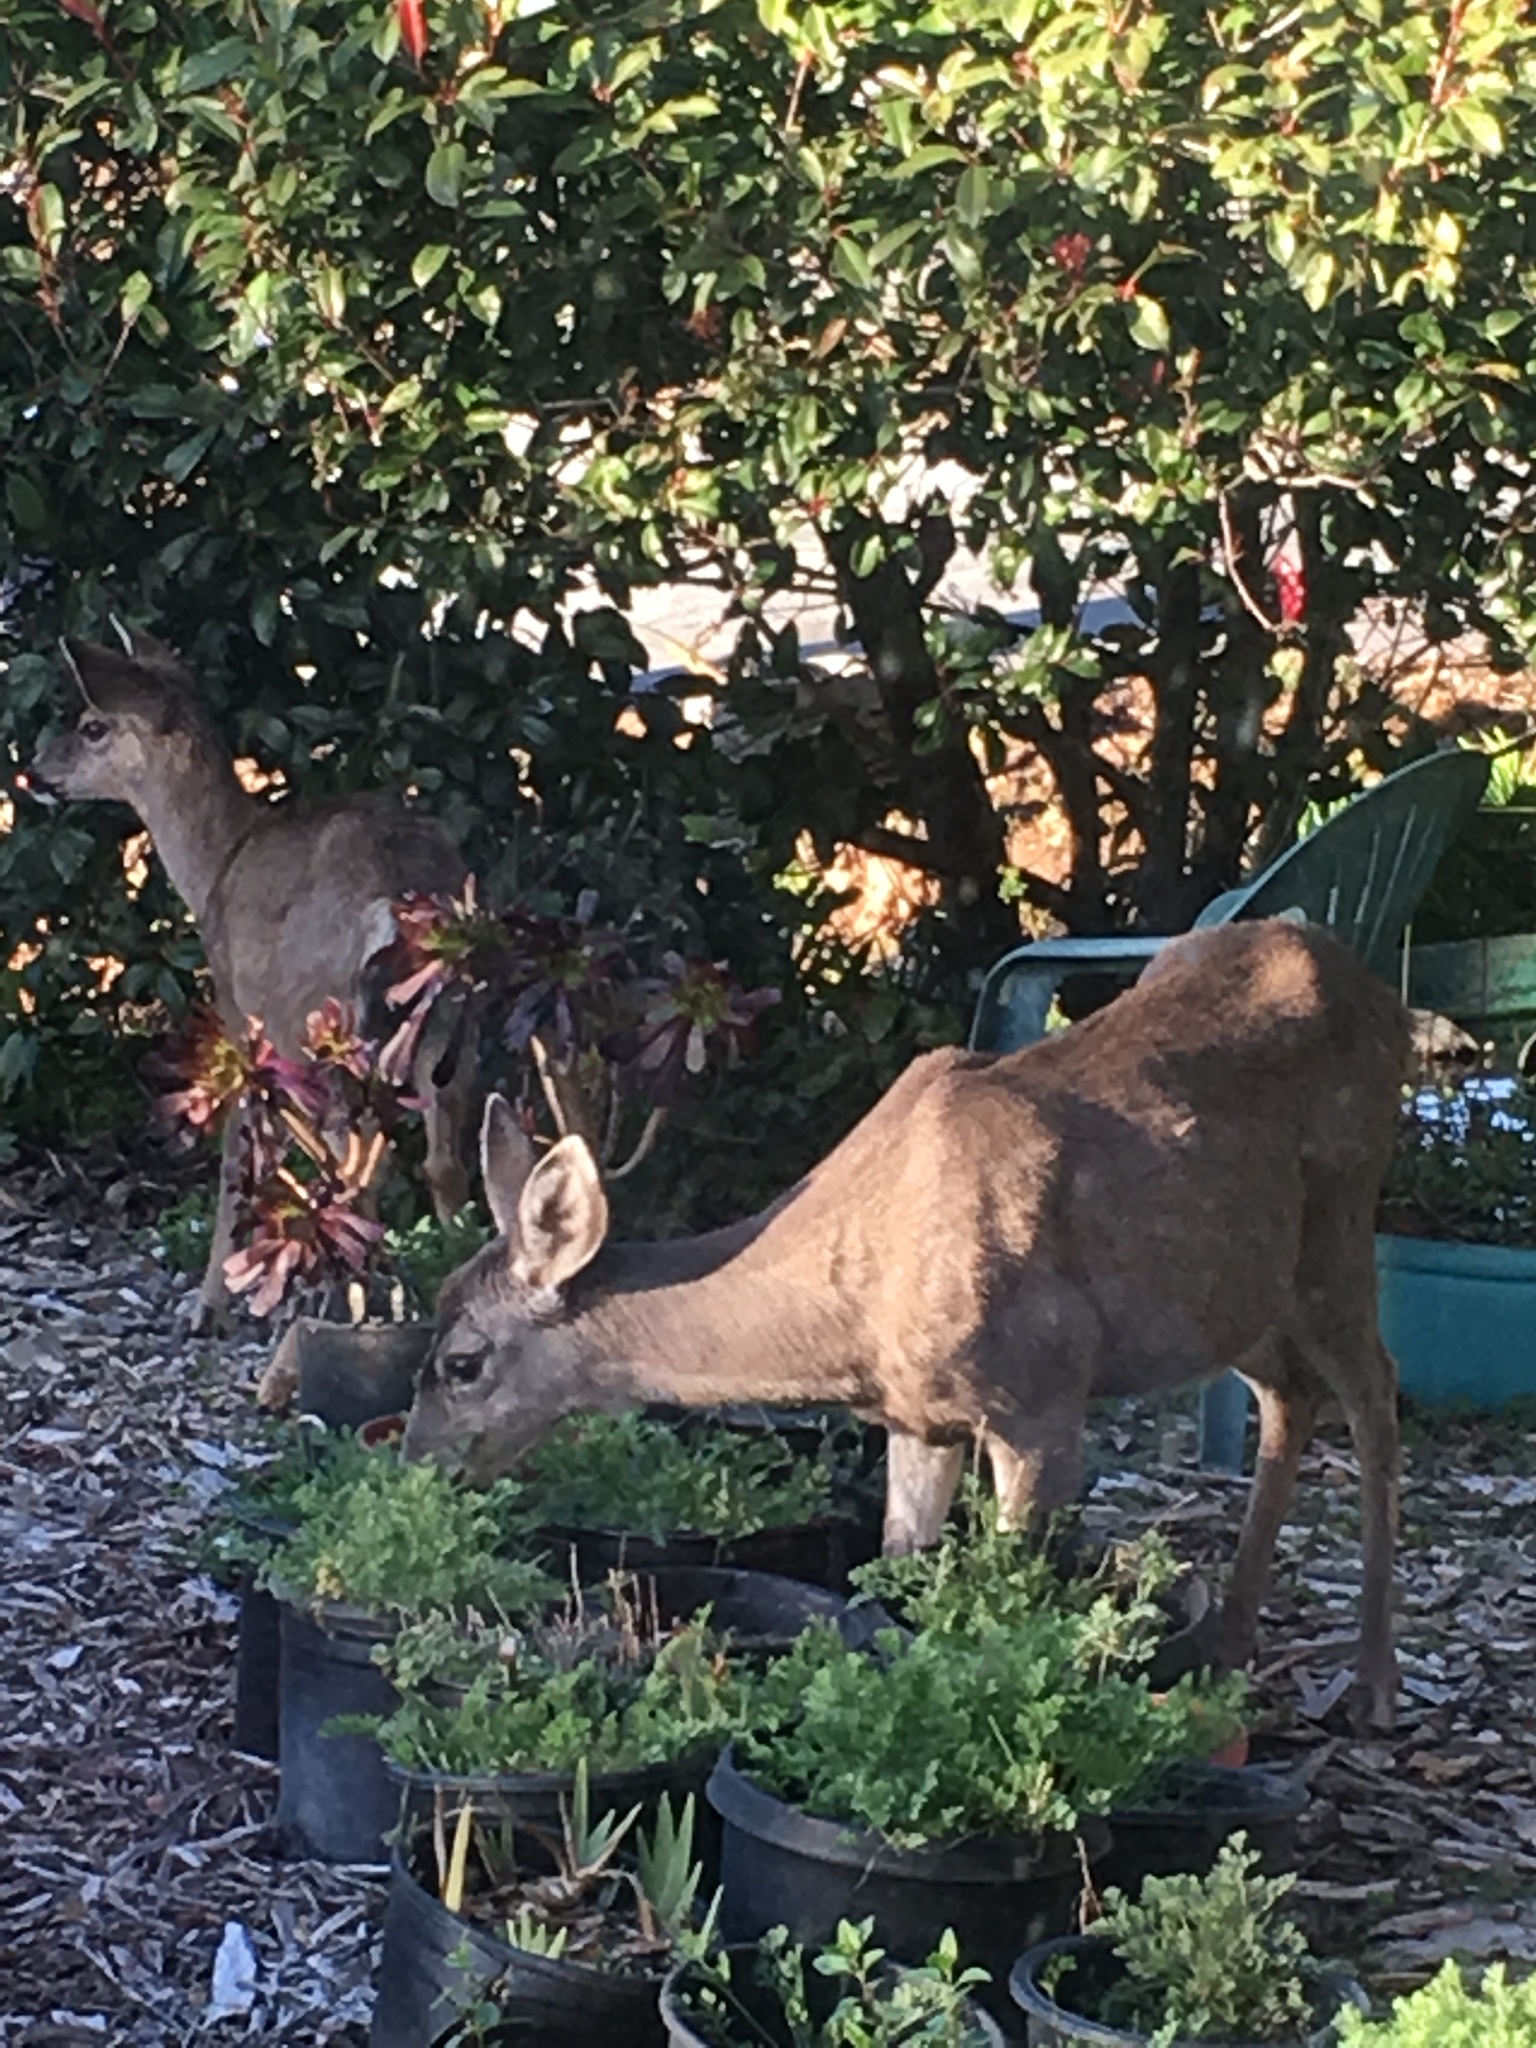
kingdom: Animalia
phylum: Chordata
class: Mammalia
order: Artiodactyla
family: Cervidae
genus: Odocoileus
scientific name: Odocoileus hemionus
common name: Mule deer
